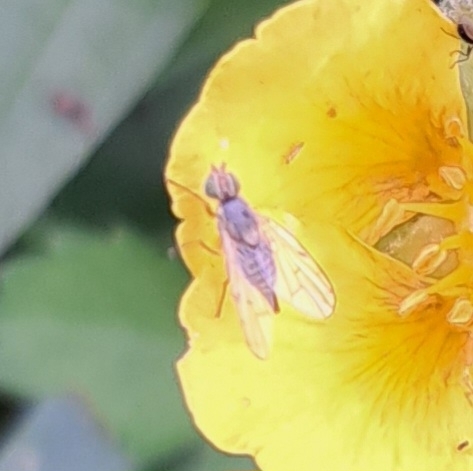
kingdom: Animalia
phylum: Arthropoda
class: Insecta
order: Diptera
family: Tephritidae
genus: Ensina
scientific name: Ensina sonchi
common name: Sonchus fly
